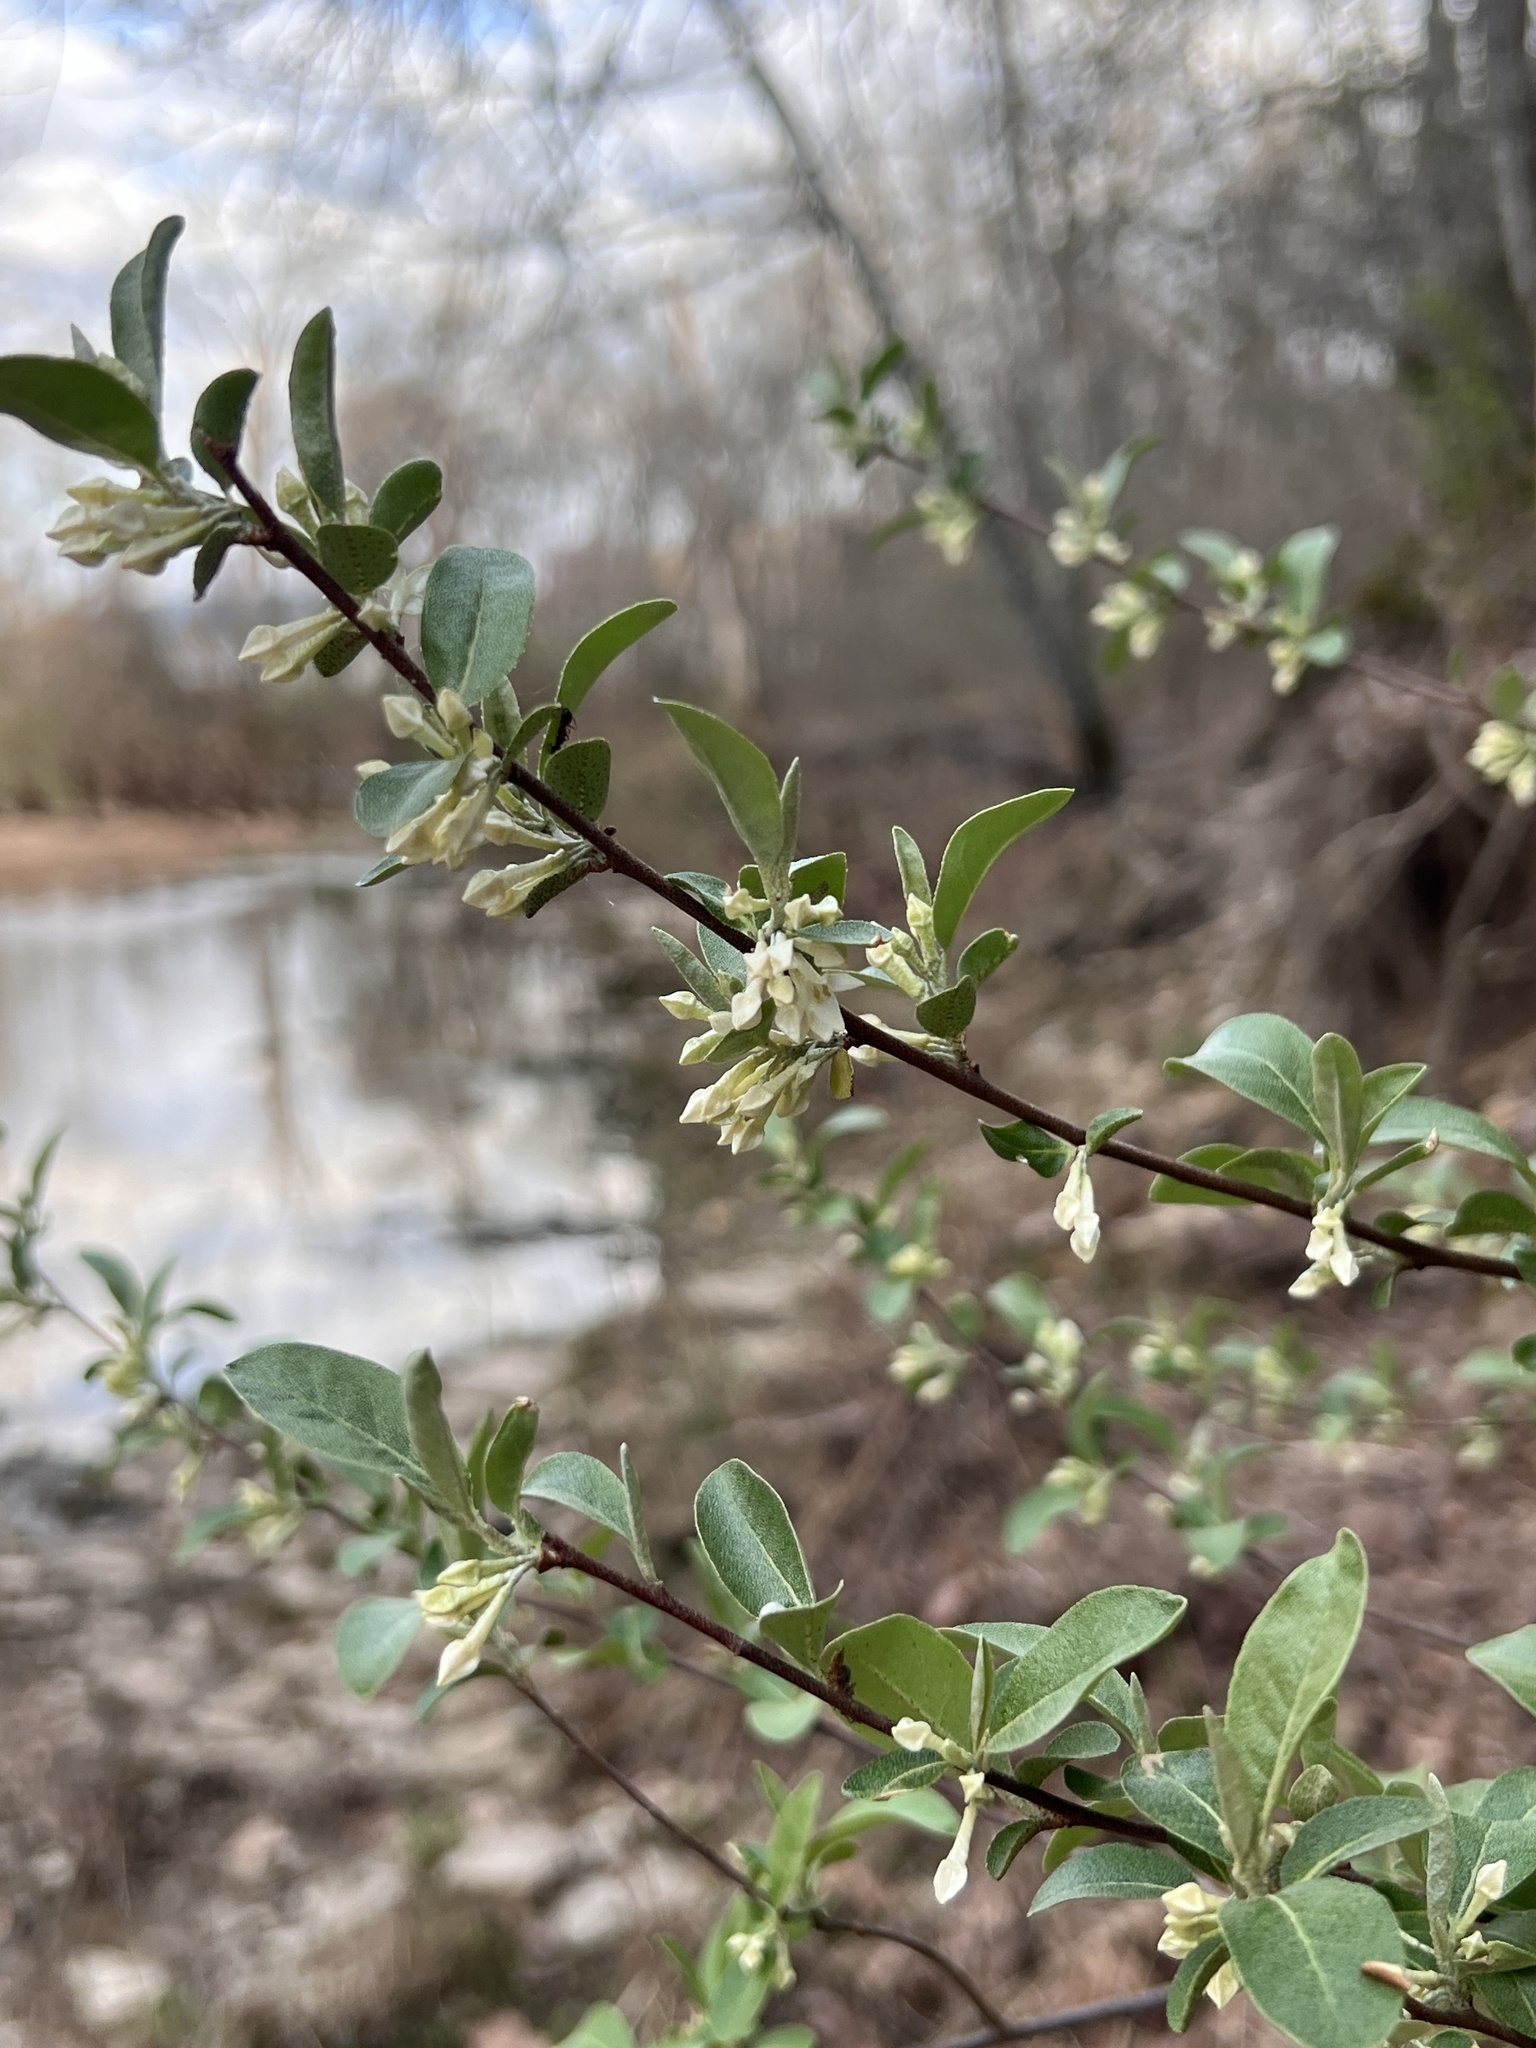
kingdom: Plantae
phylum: Tracheophyta
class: Magnoliopsida
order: Rosales
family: Elaeagnaceae
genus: Elaeagnus
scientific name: Elaeagnus umbellata
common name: Autumn olive
